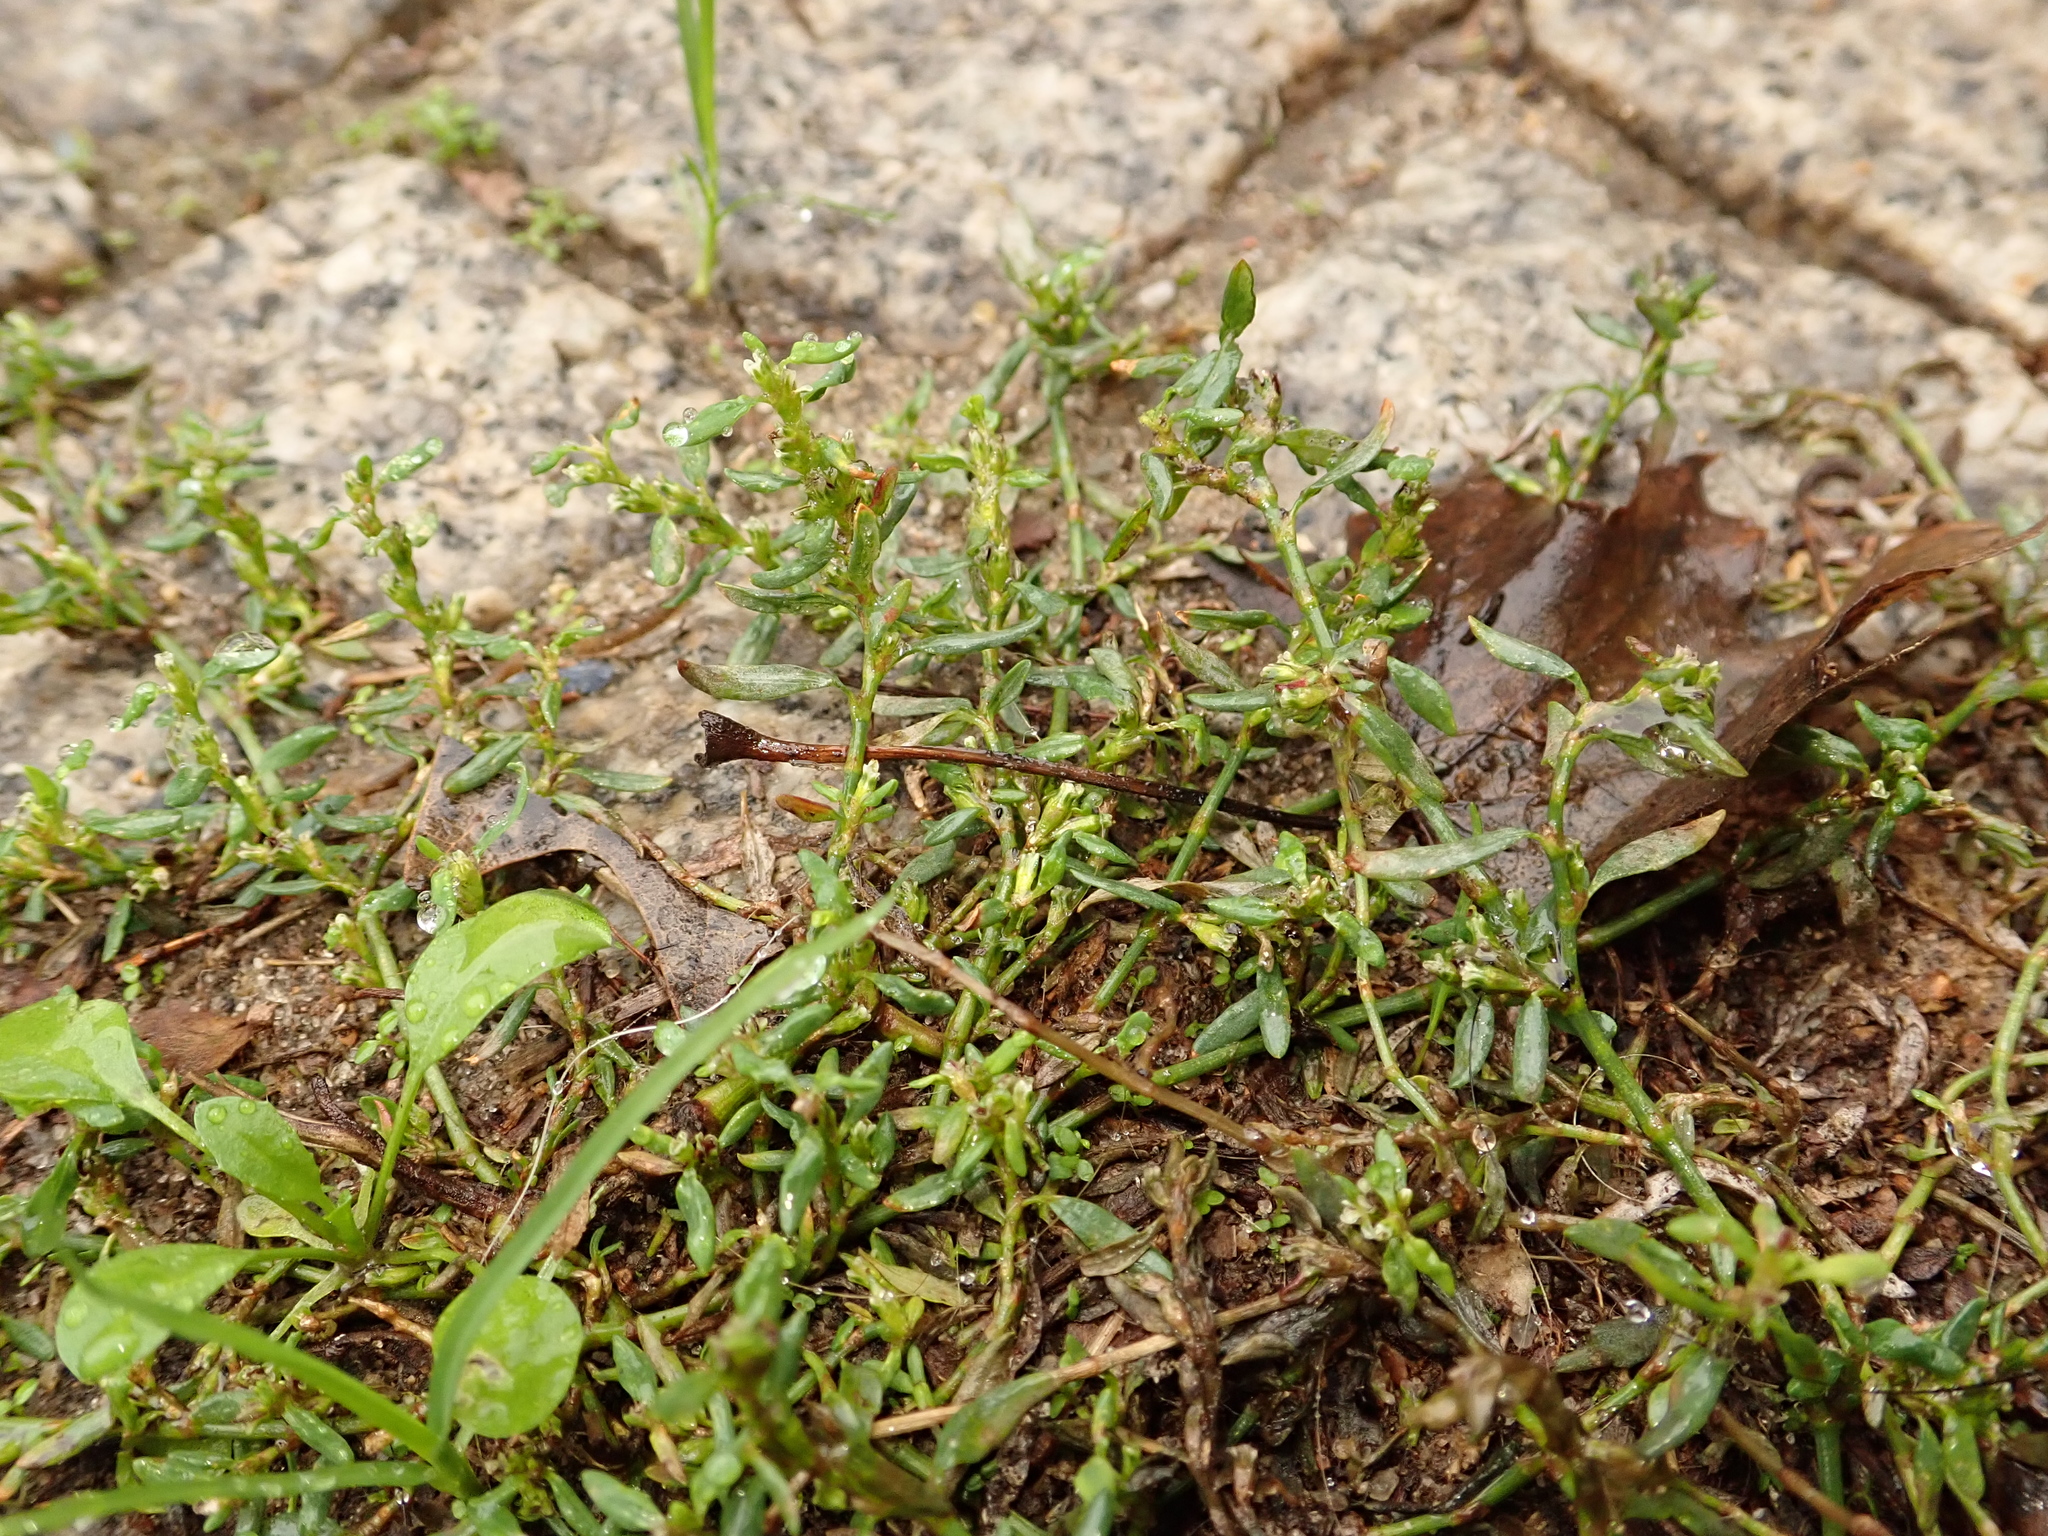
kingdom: Plantae
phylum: Tracheophyta
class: Magnoliopsida
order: Caryophyllales
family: Polygonaceae
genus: Polygonum
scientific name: Polygonum aviculare
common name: Prostrate knotweed
